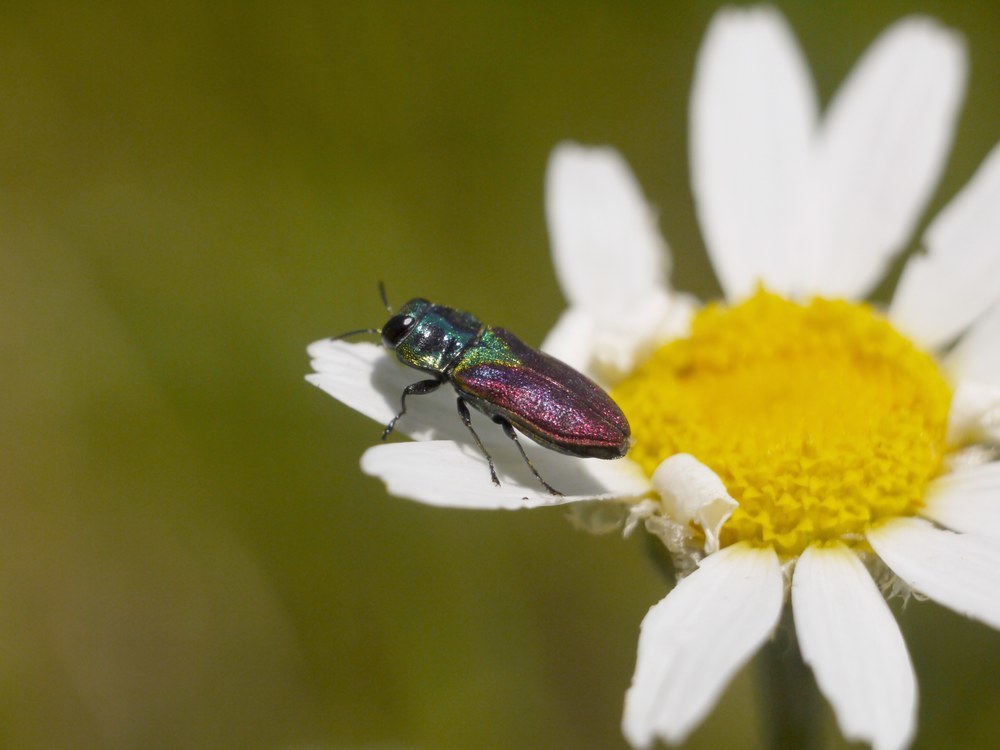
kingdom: Animalia
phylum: Arthropoda
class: Insecta
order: Coleoptera
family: Buprestidae
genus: Anthaxia
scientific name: Anthaxia bicolor
